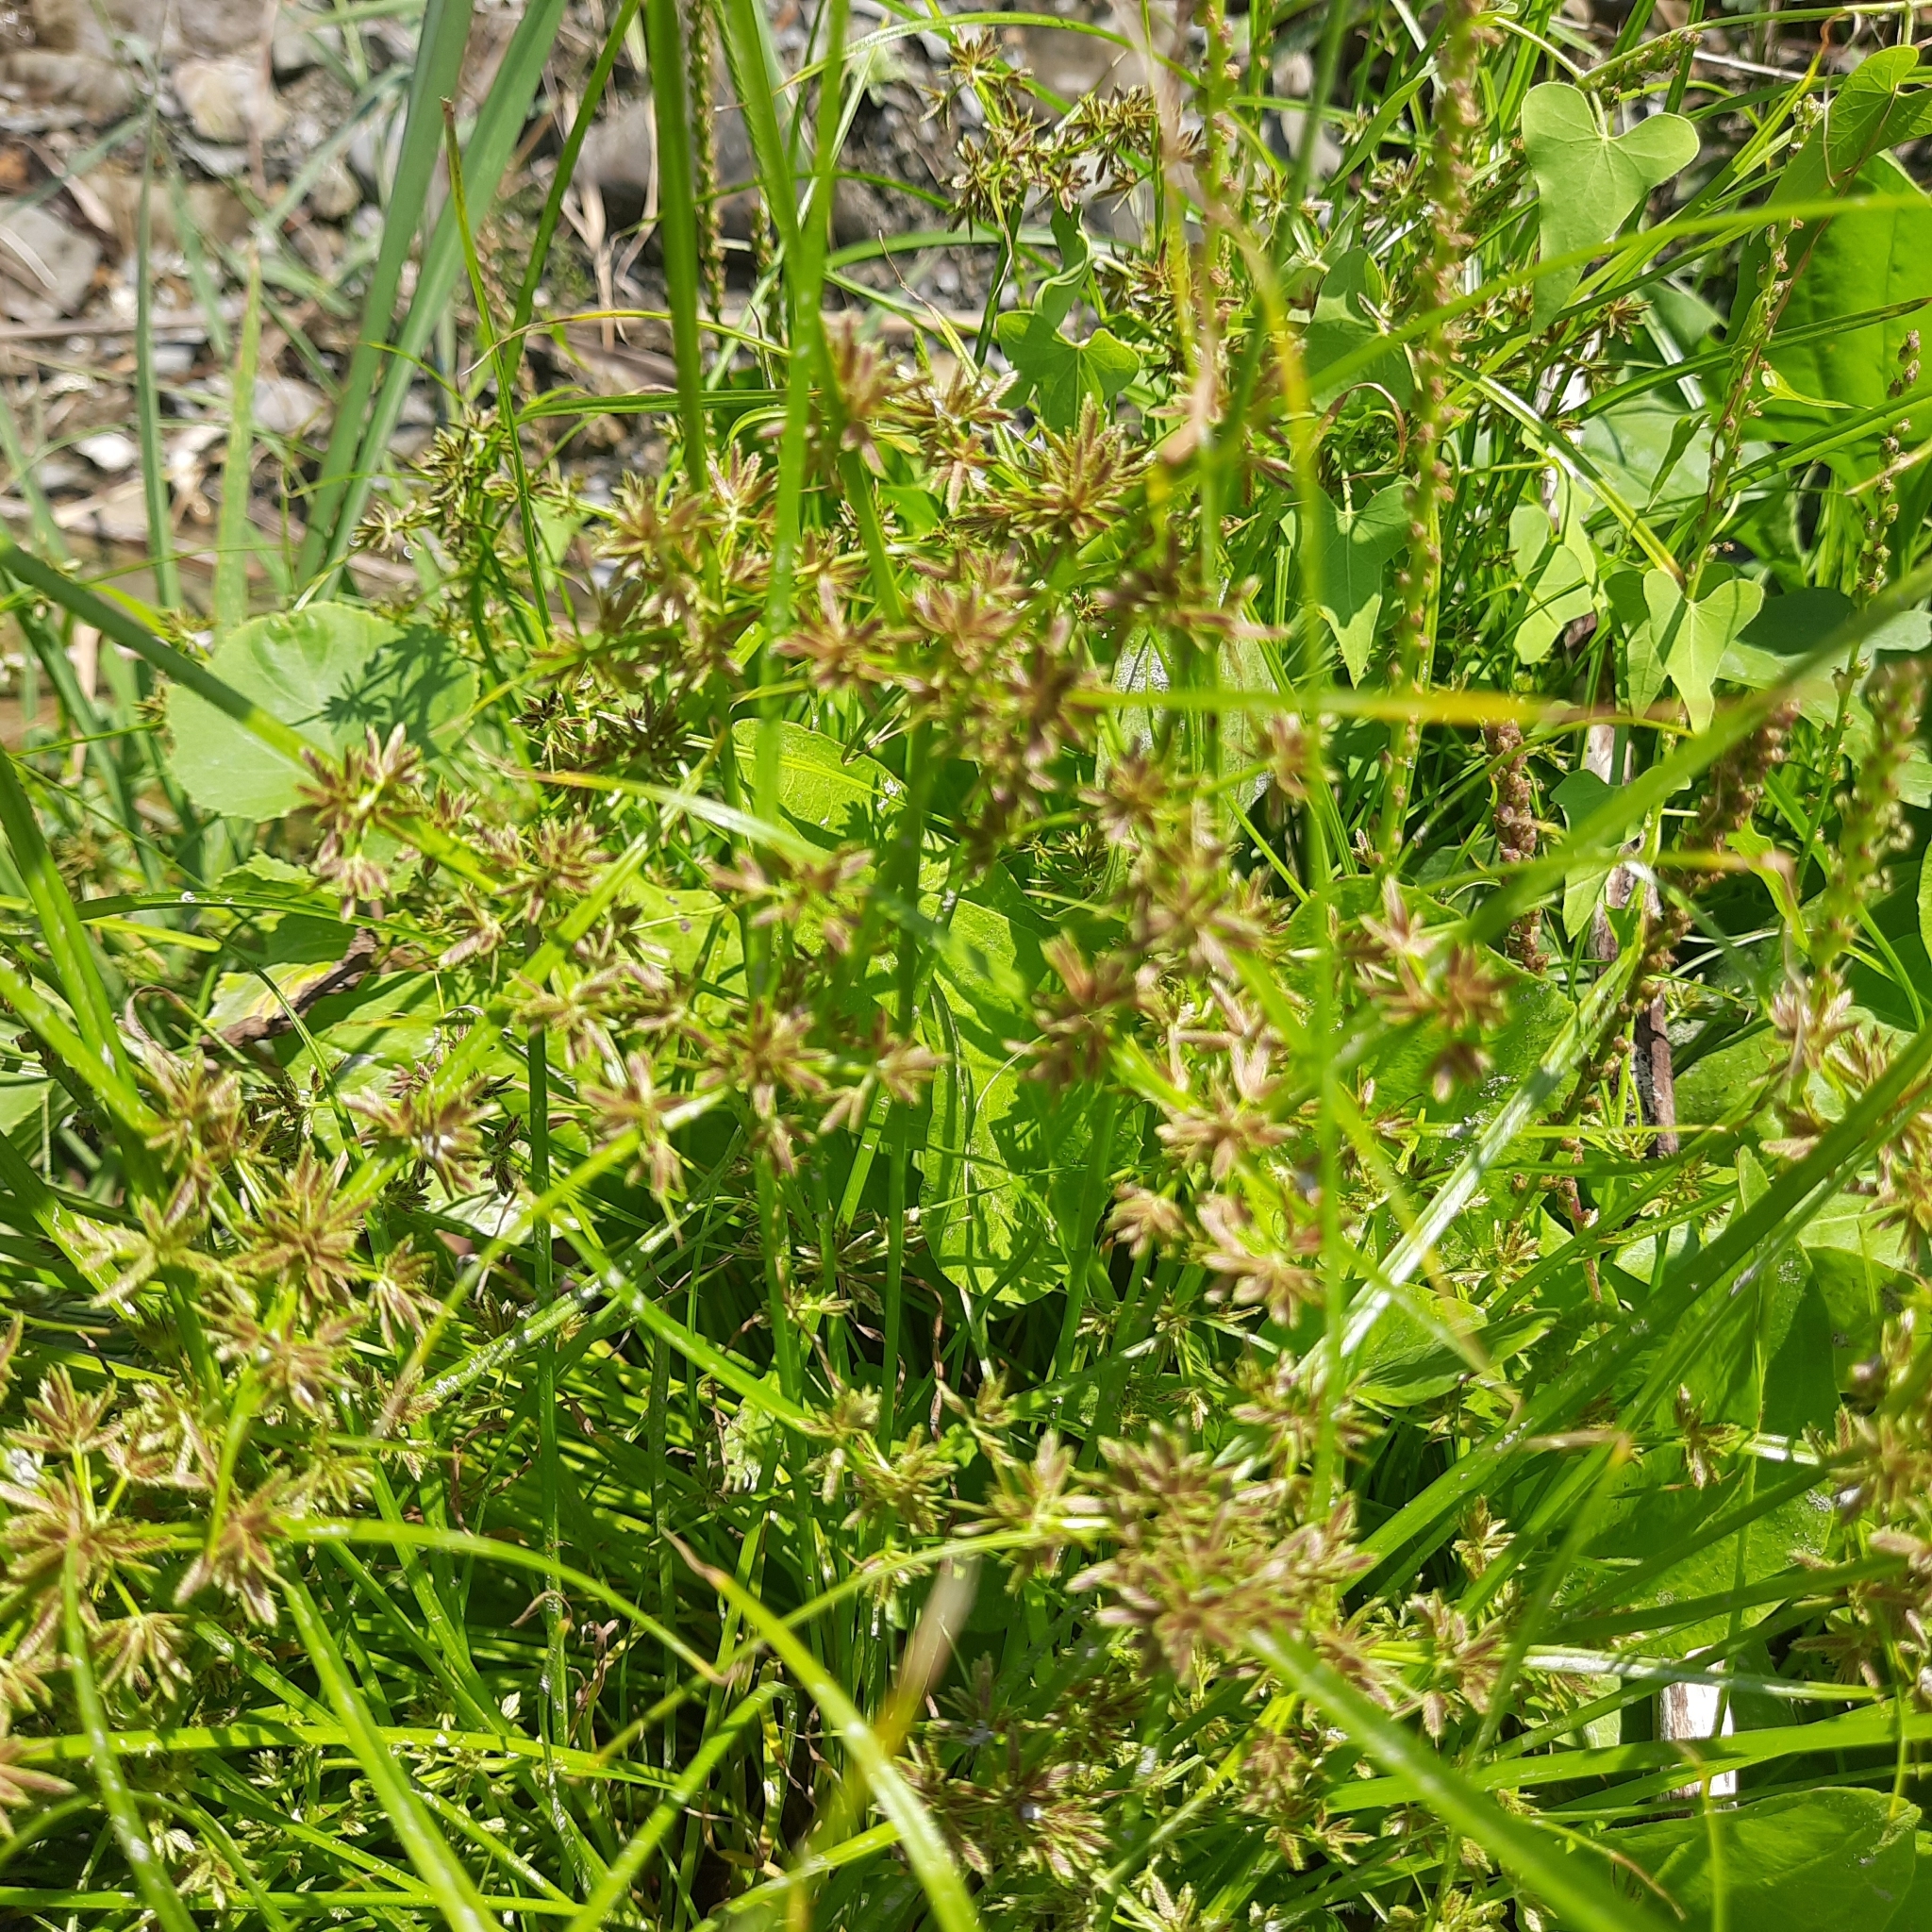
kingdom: Plantae
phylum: Tracheophyta
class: Liliopsida
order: Poales
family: Cyperaceae
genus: Cyperus
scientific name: Cyperus fuscus
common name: Brown galingale
